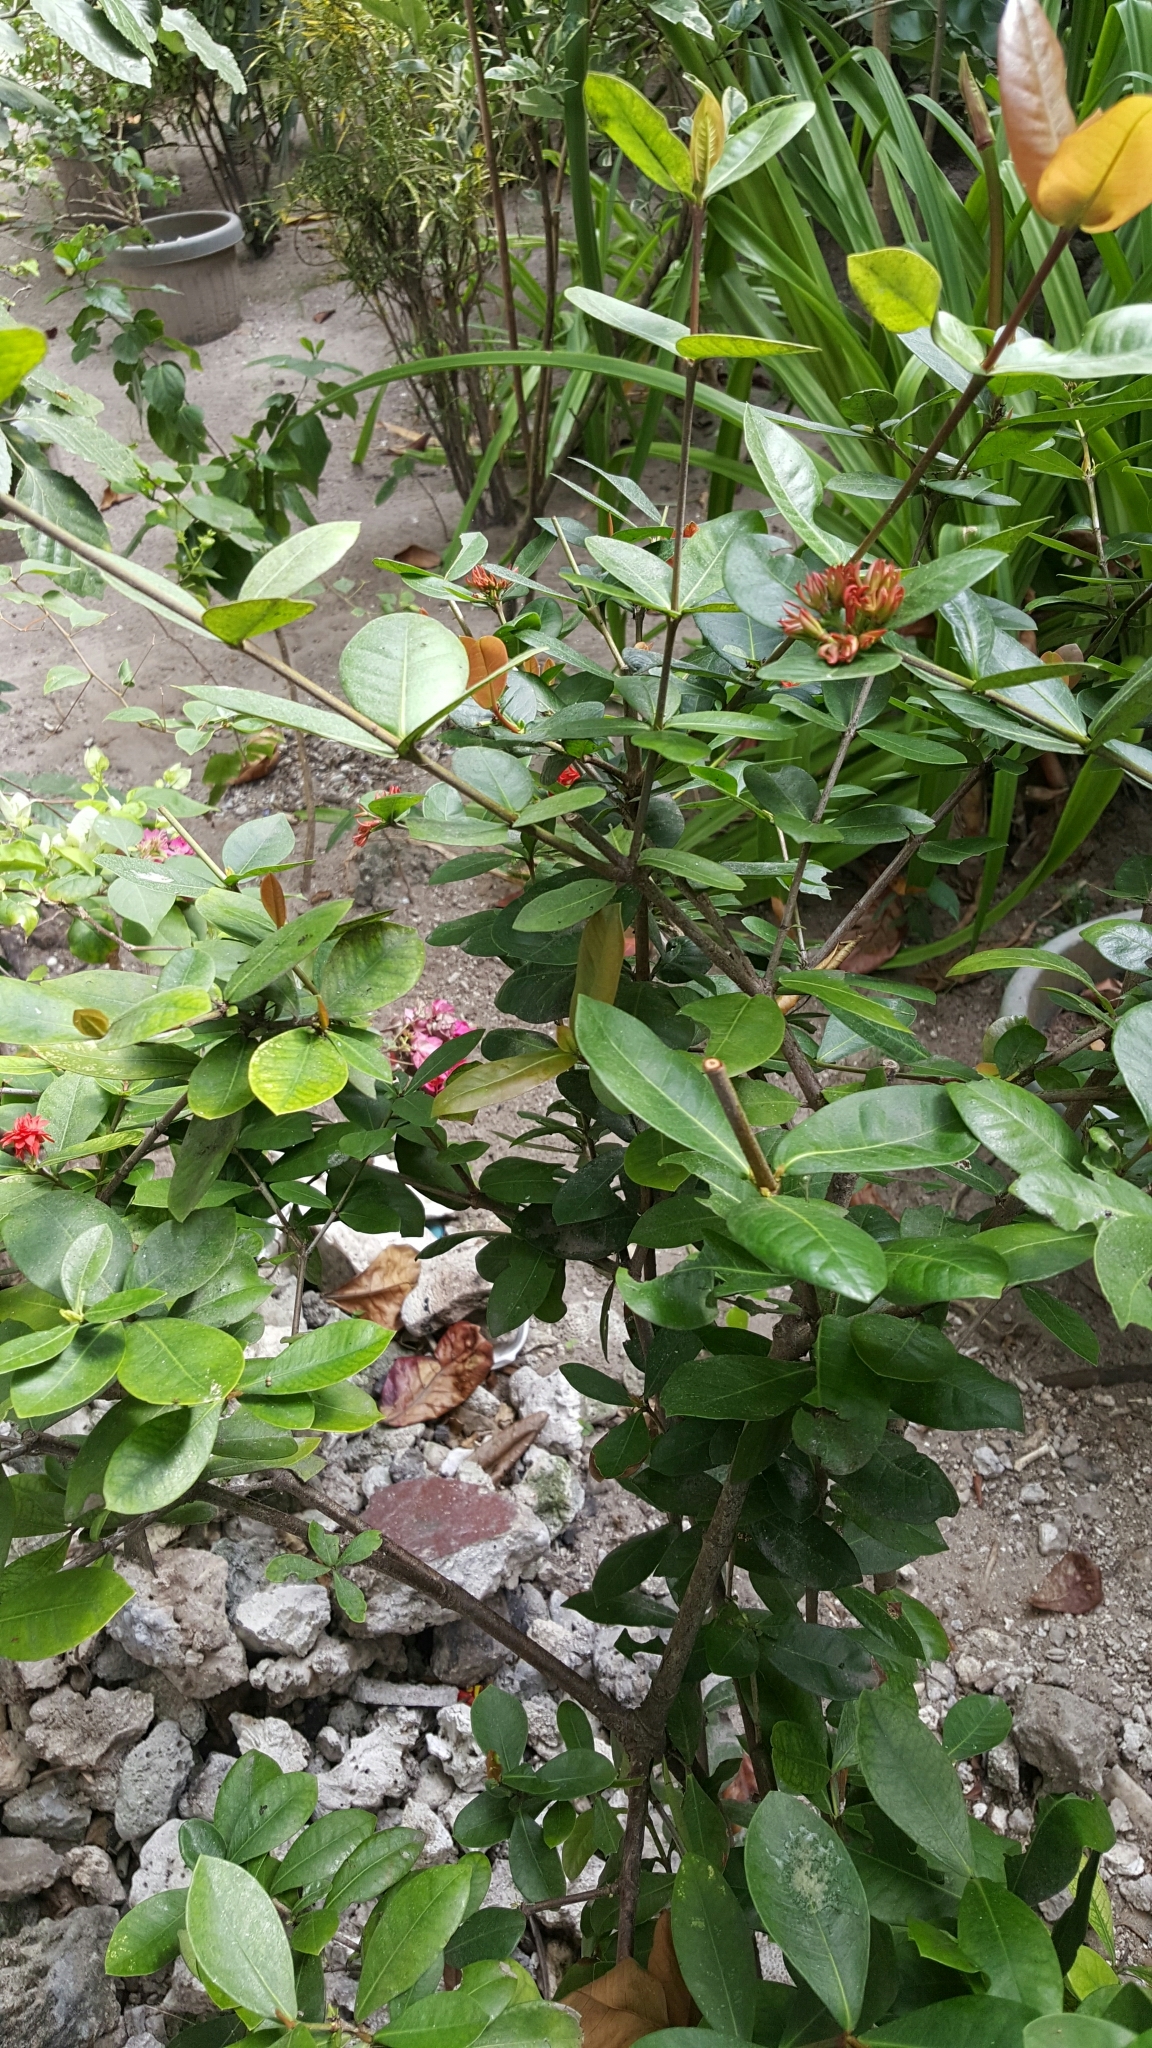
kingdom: Plantae
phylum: Tracheophyta
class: Magnoliopsida
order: Gentianales
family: Rubiaceae
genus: Ixora
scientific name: Ixora coccinea
